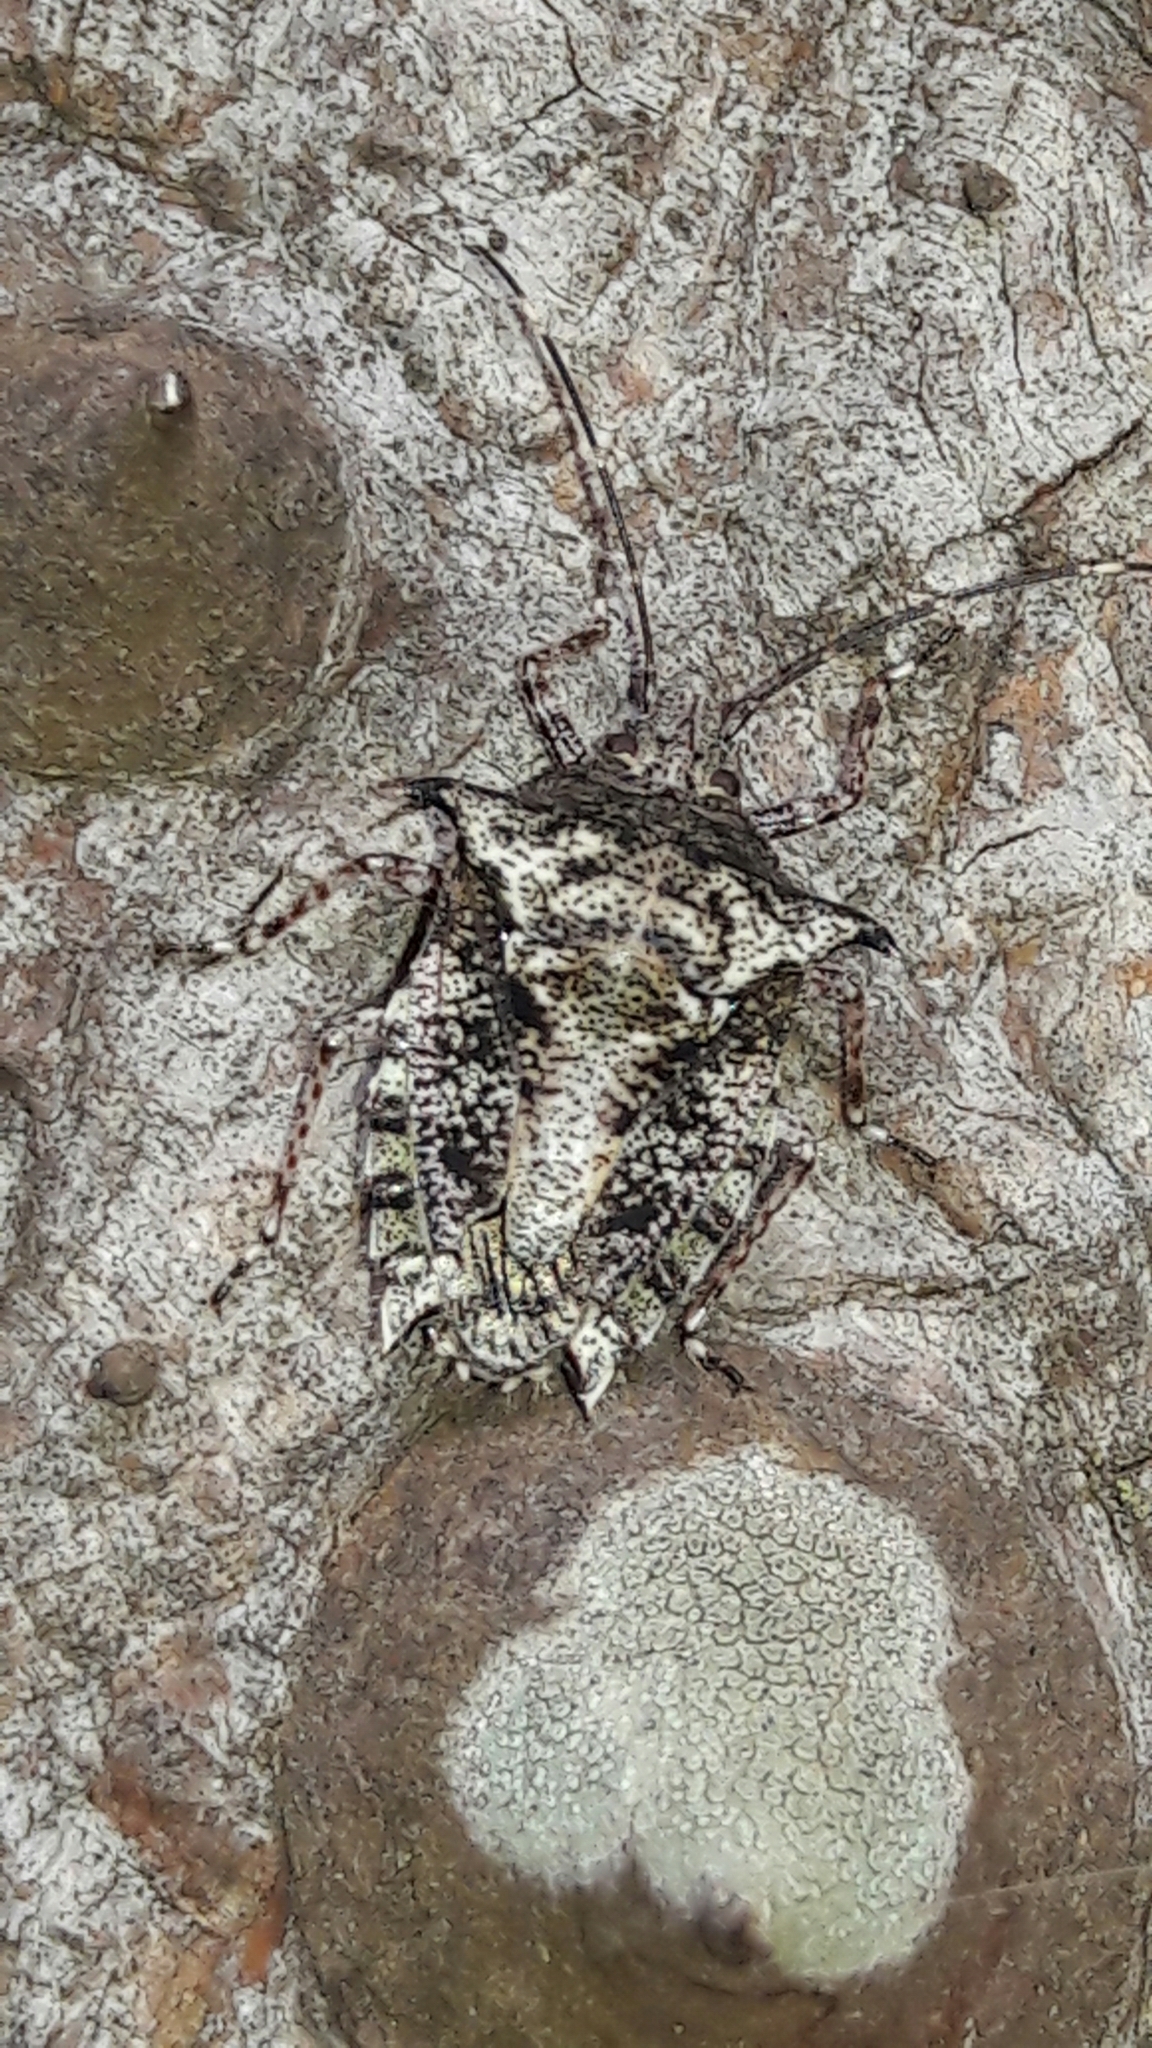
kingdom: Animalia
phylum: Arthropoda
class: Insecta
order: Hemiptera
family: Pentatomidae
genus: Pseudevoplitus
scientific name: Pseudevoplitus
